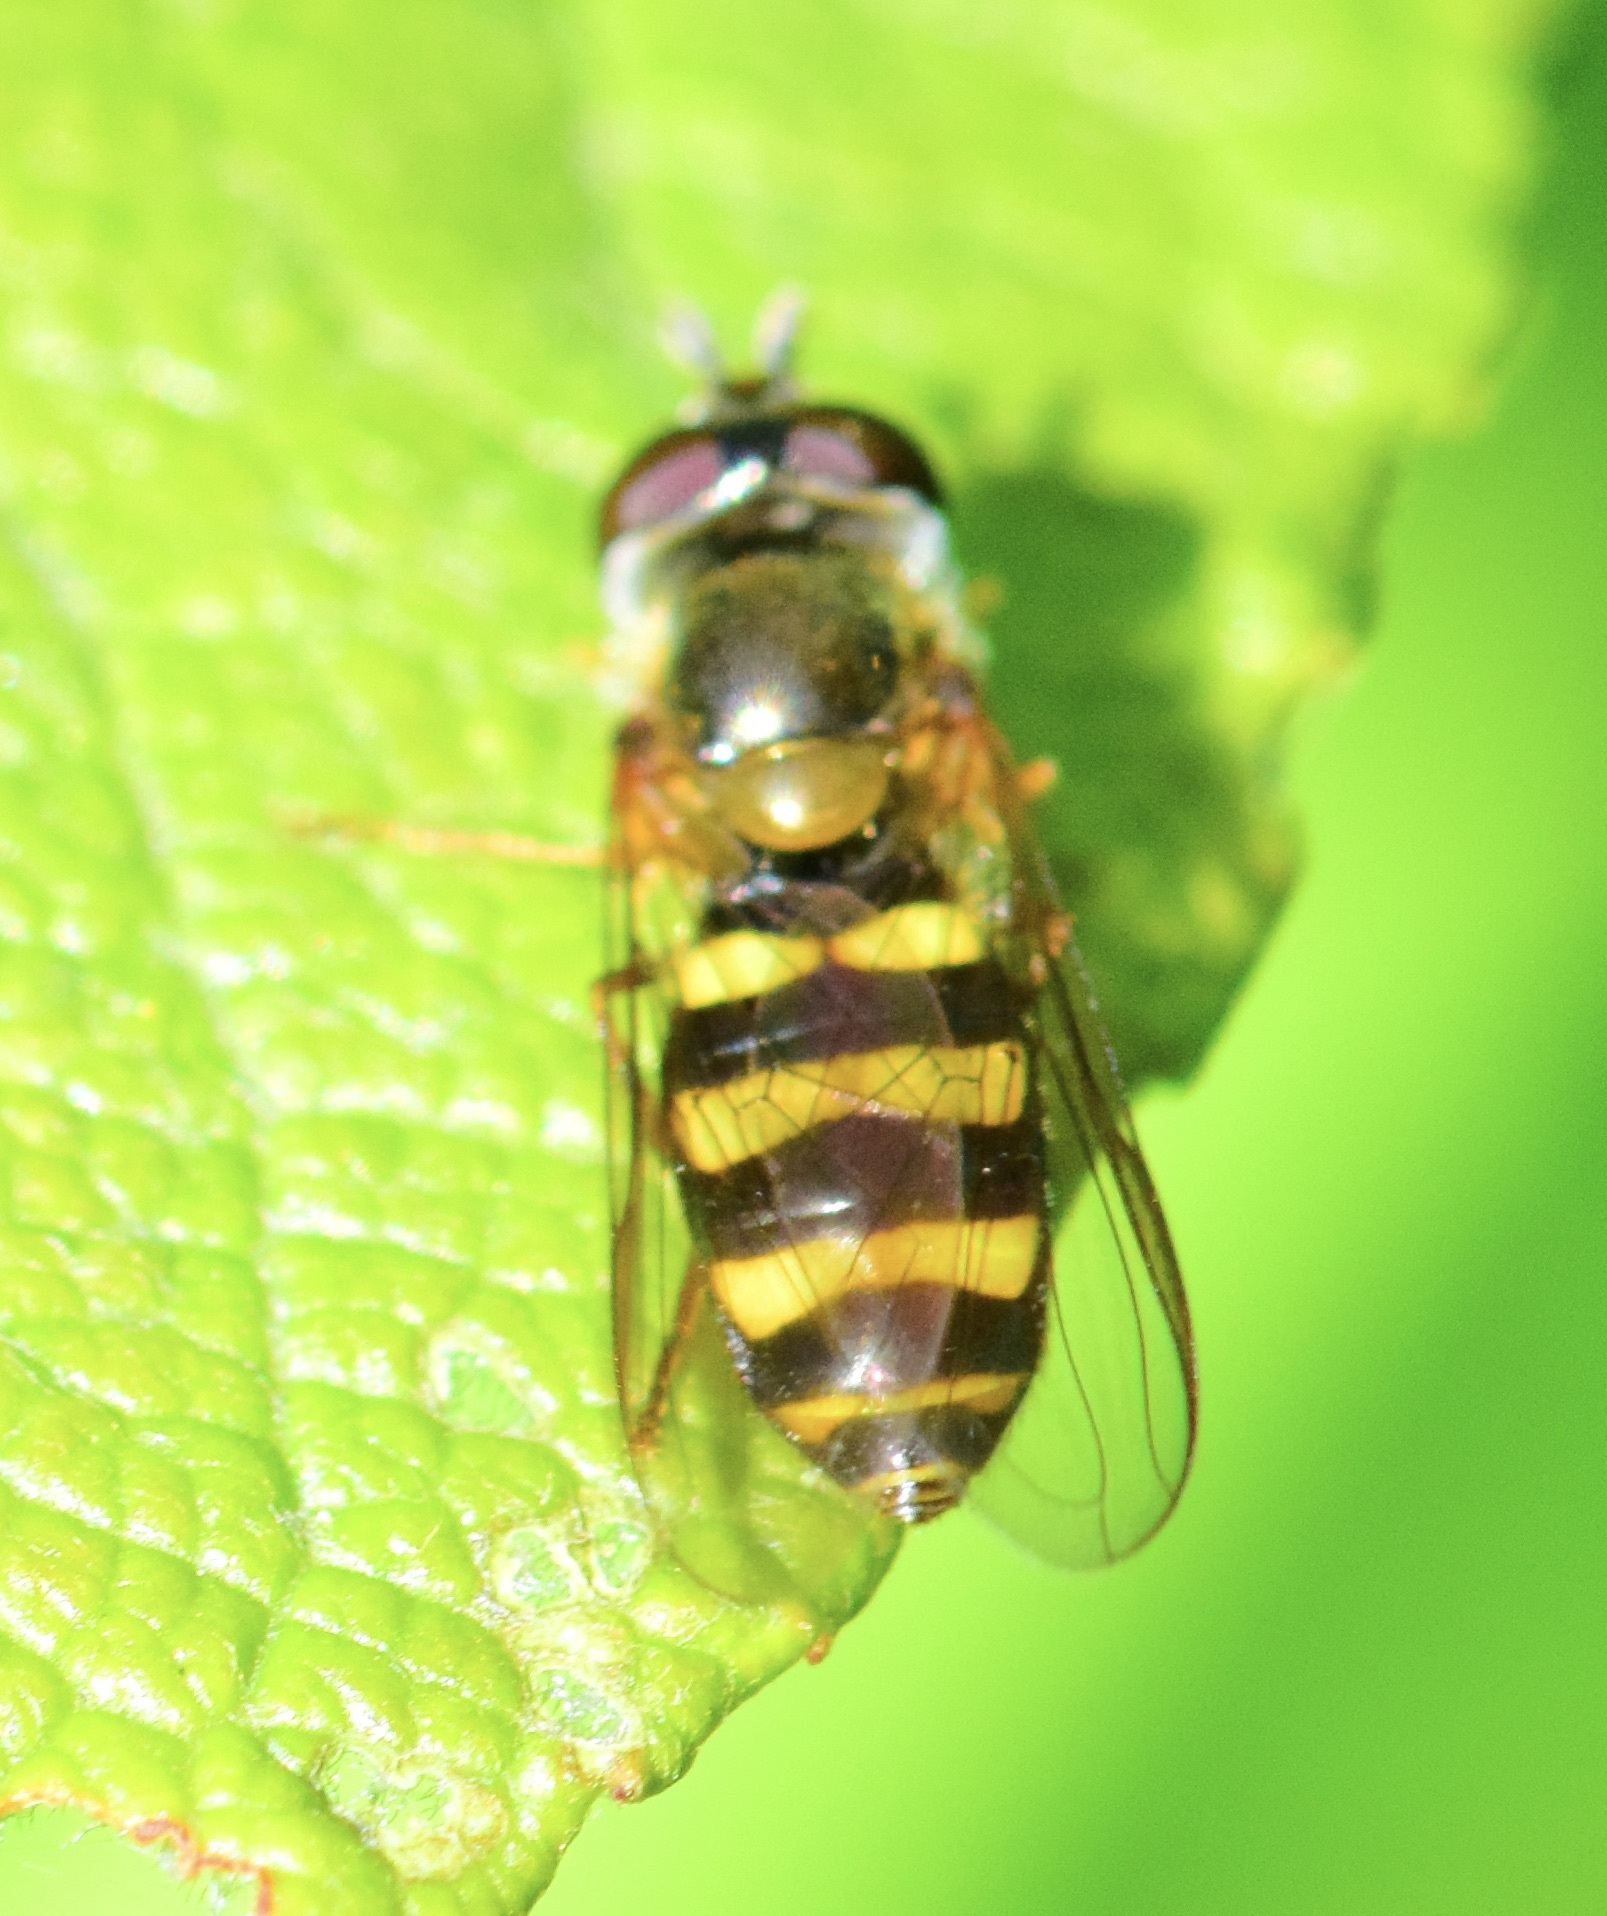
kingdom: Animalia
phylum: Arthropoda
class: Insecta
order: Diptera
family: Syrphidae
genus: Eupeodes
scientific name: Eupeodes
